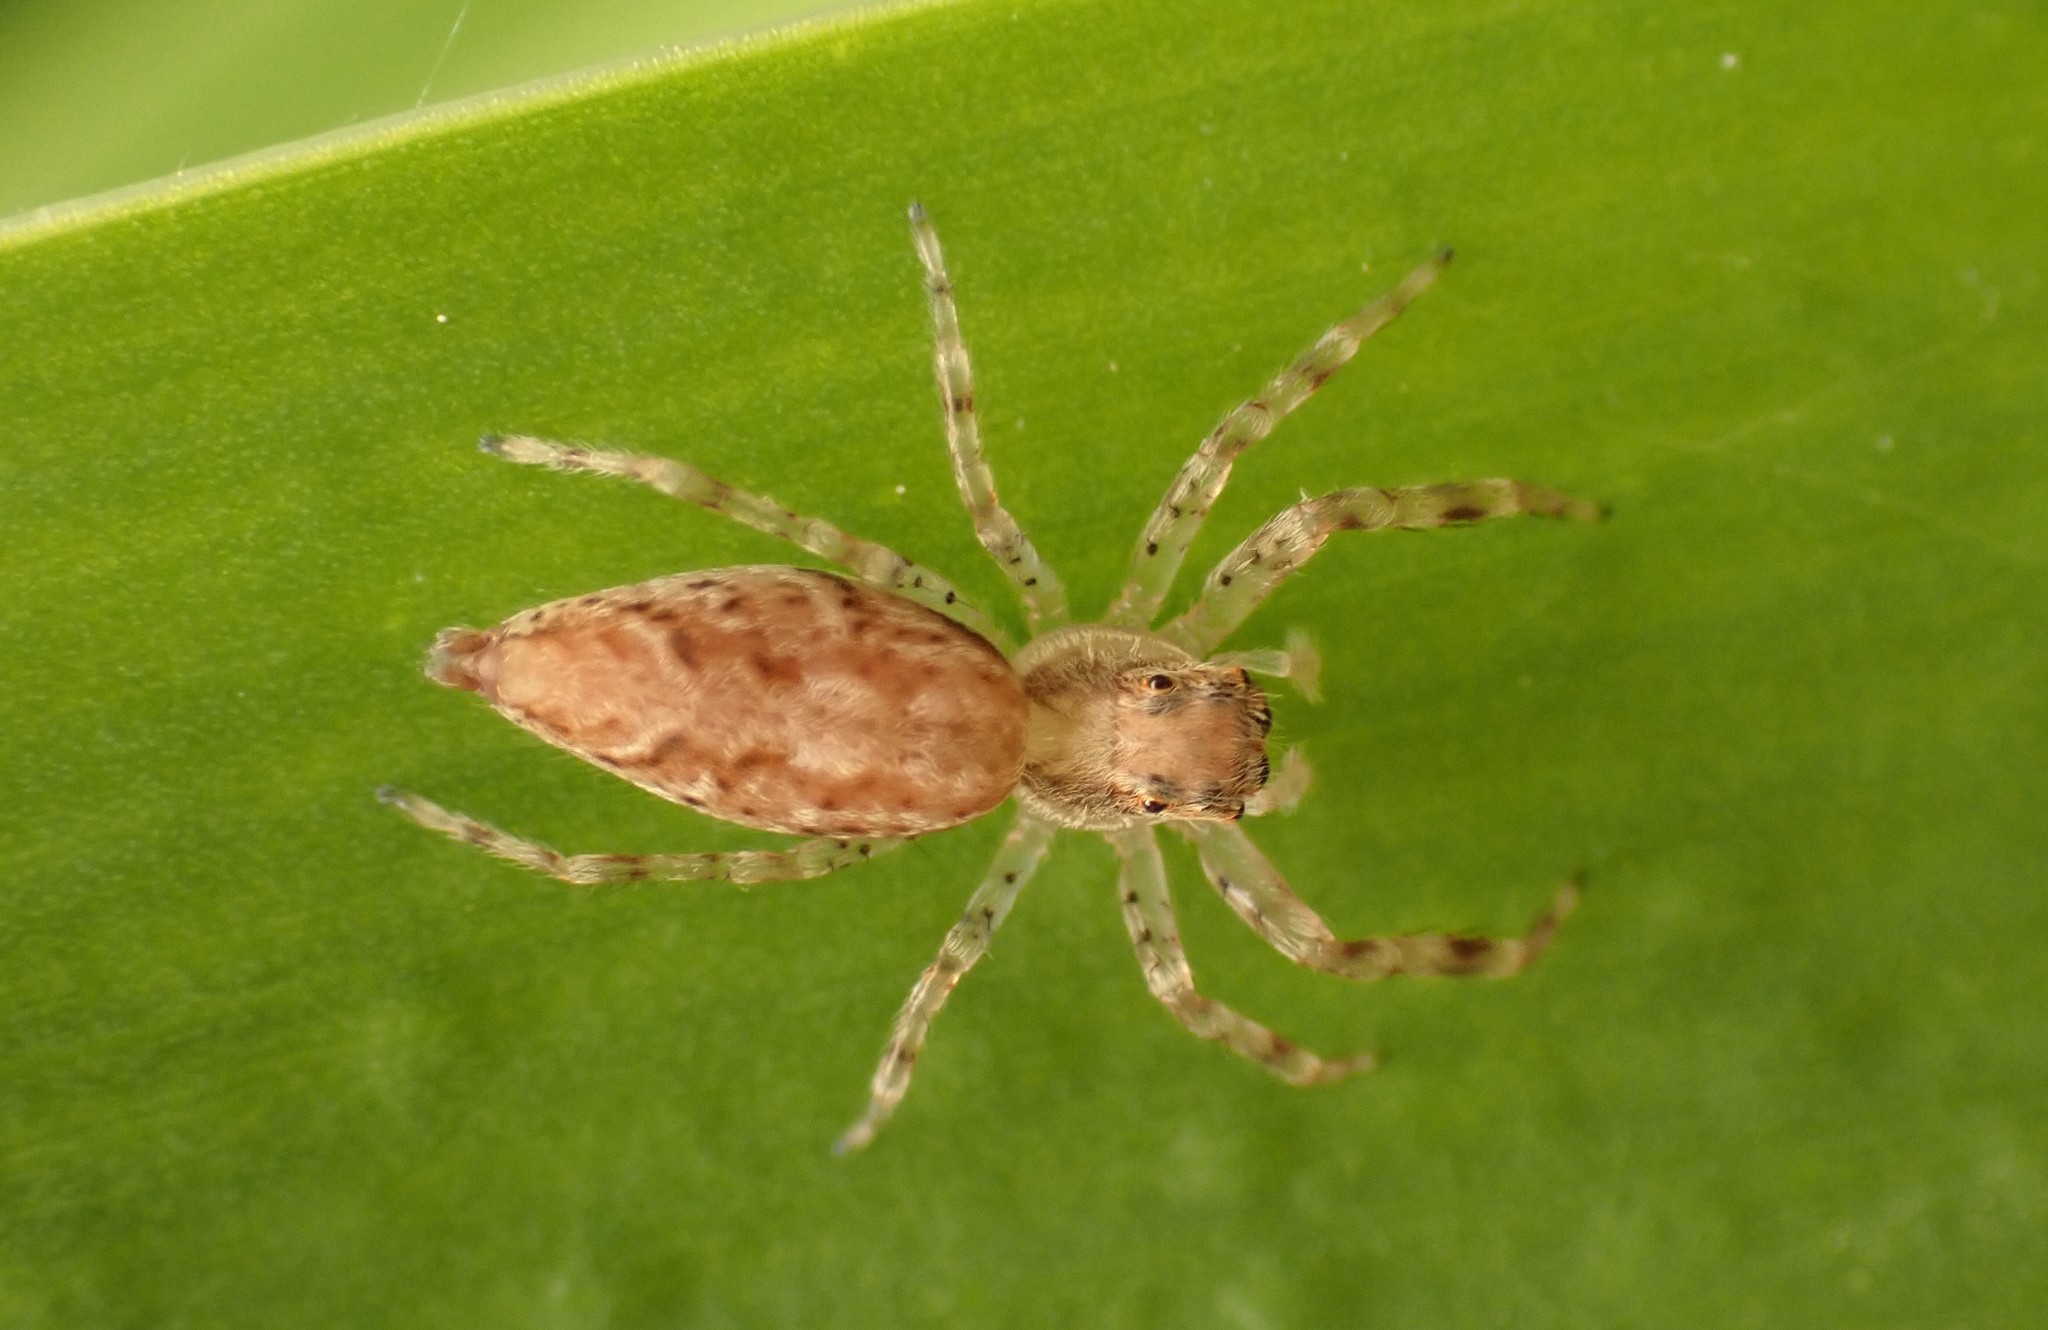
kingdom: Animalia
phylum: Arthropoda
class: Arachnida
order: Araneae
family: Salticidae
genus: Helpis
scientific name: Helpis minitabunda
